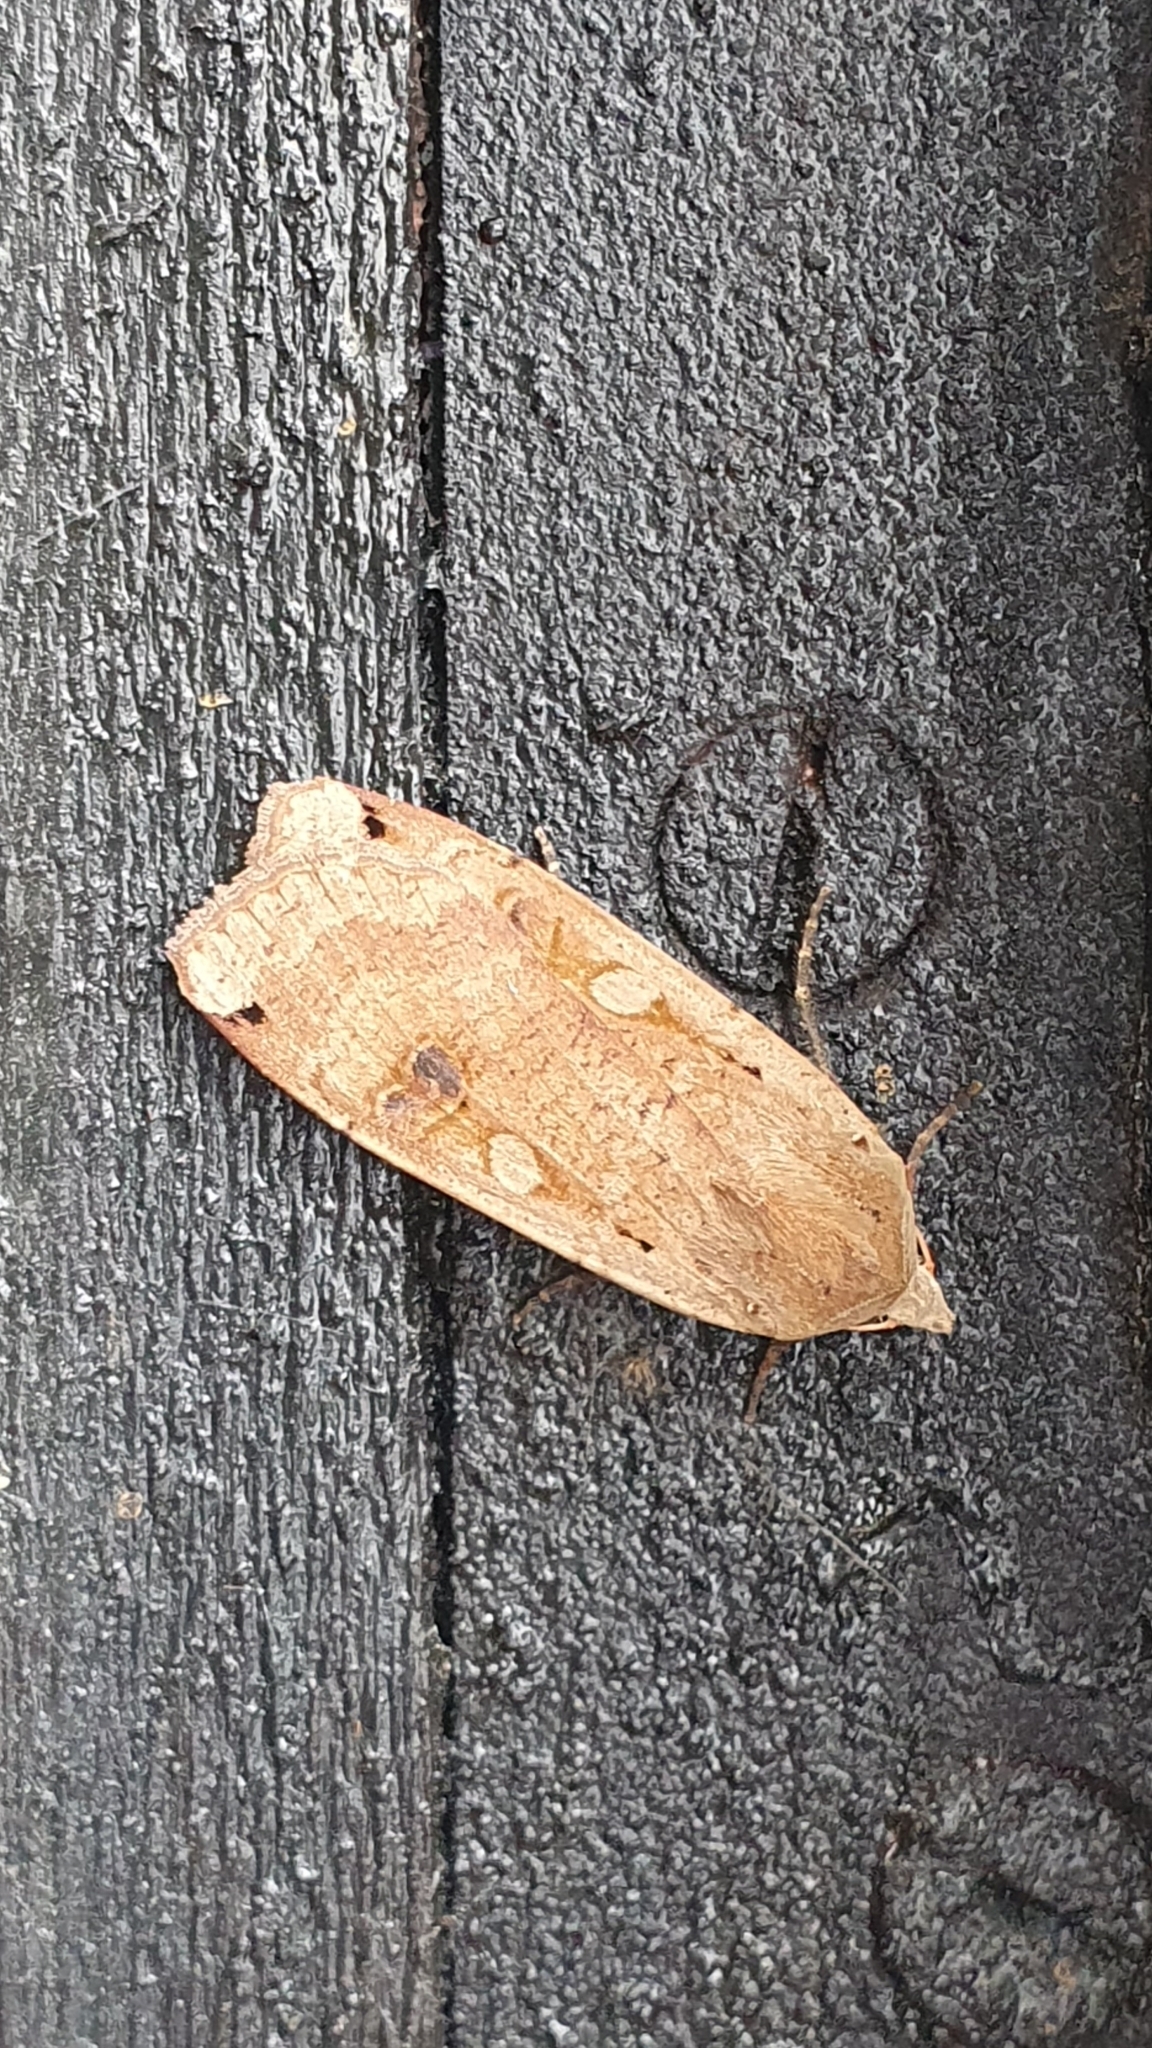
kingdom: Animalia
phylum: Arthropoda
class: Insecta
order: Lepidoptera
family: Noctuidae
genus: Noctua
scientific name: Noctua pronuba
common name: Large yellow underwing
